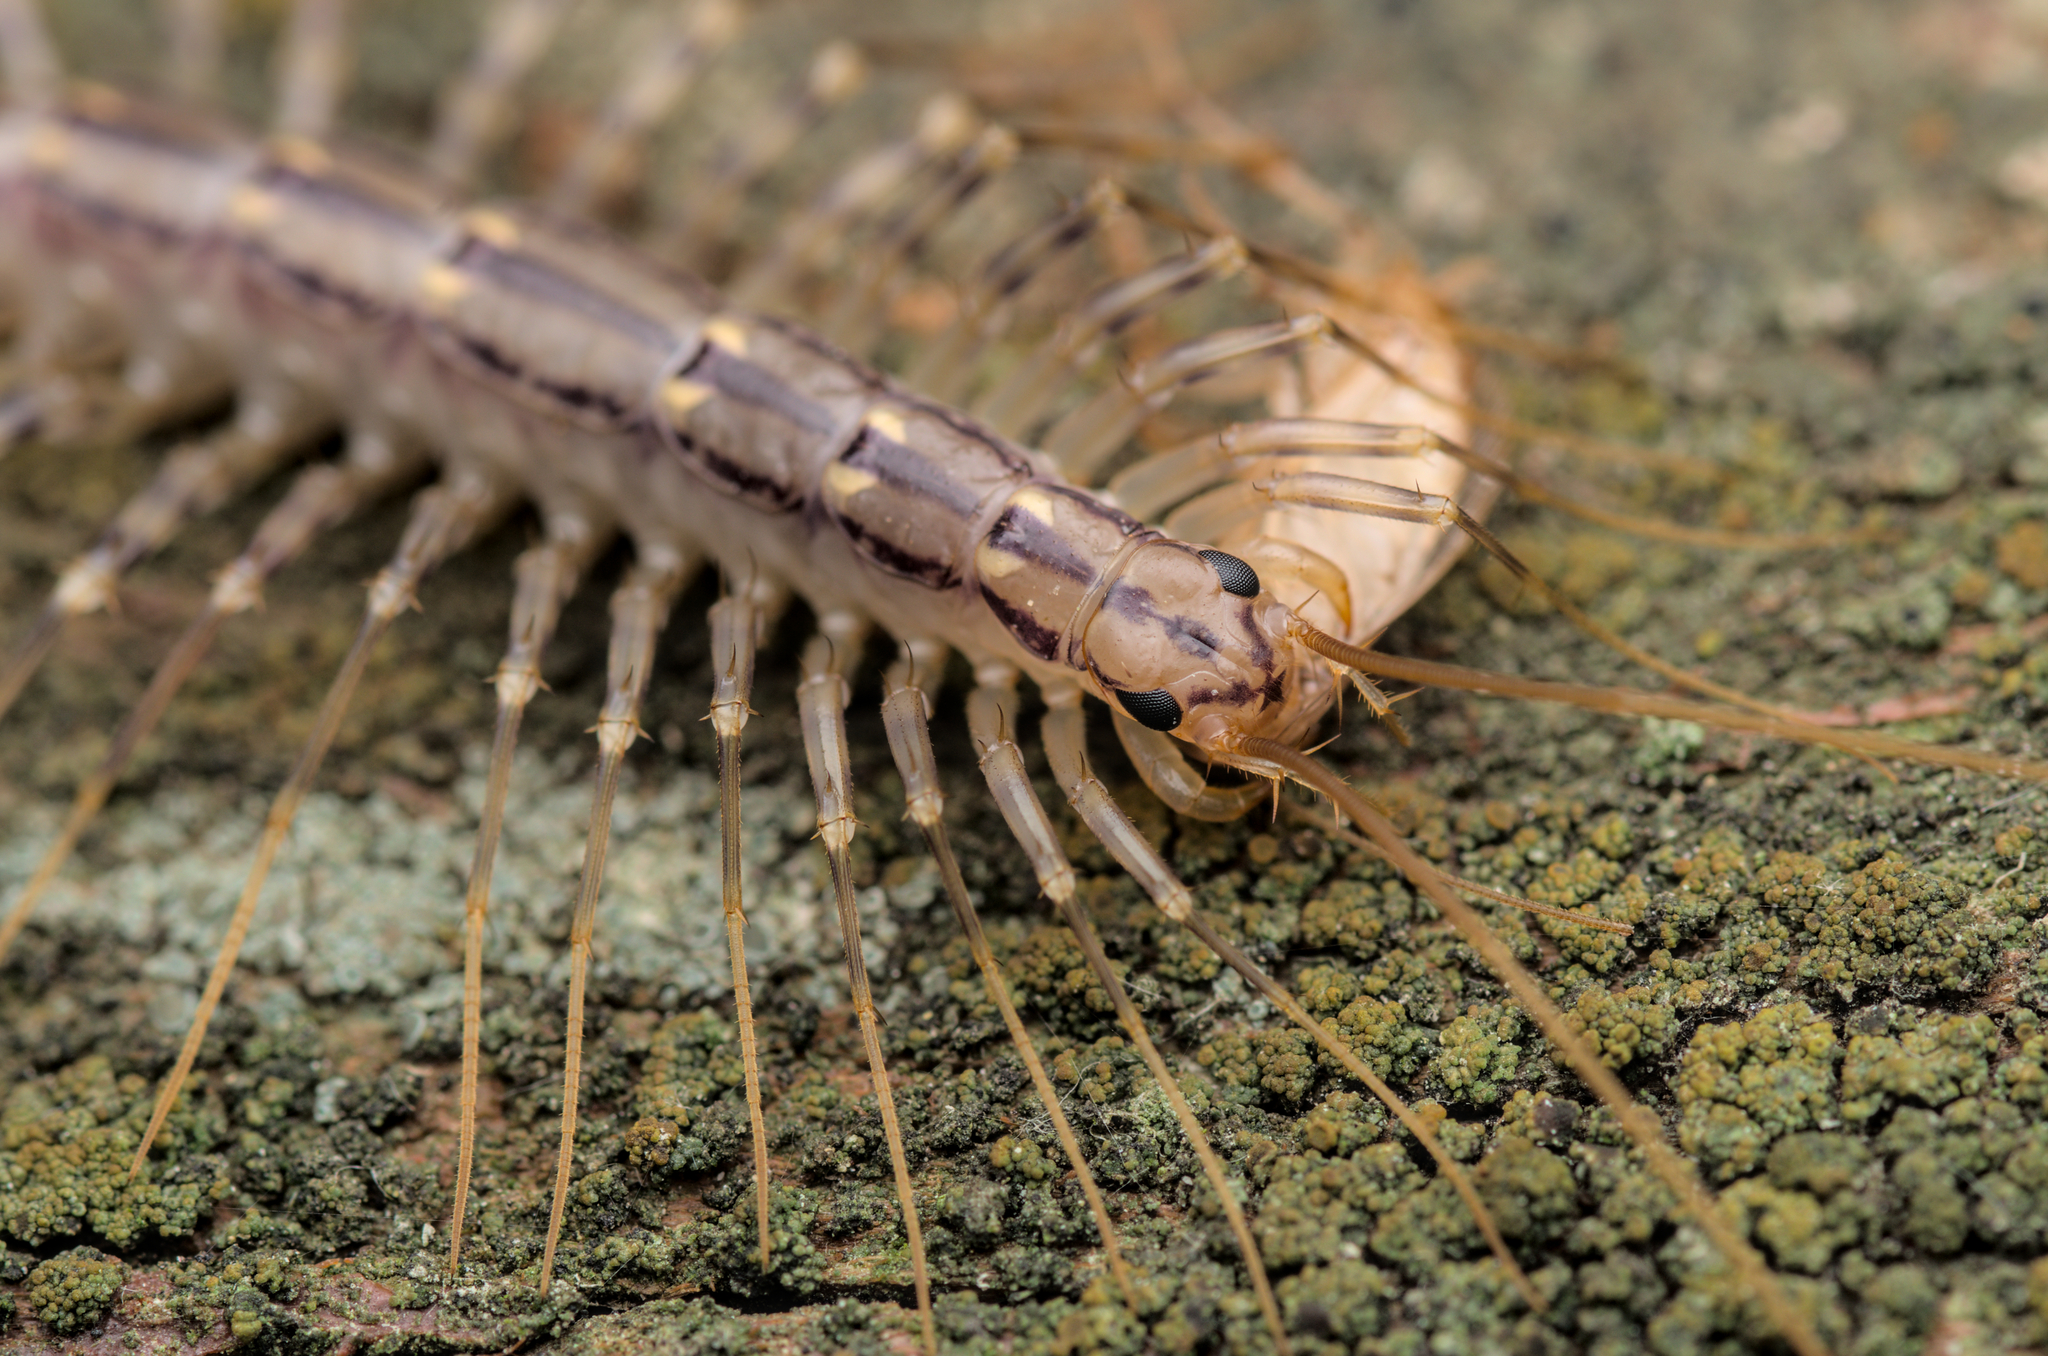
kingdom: Animalia
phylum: Arthropoda
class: Chilopoda
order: Scutigeromorpha
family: Scutigeridae
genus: Scutigera
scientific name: Scutigera coleoptrata
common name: House centipede
